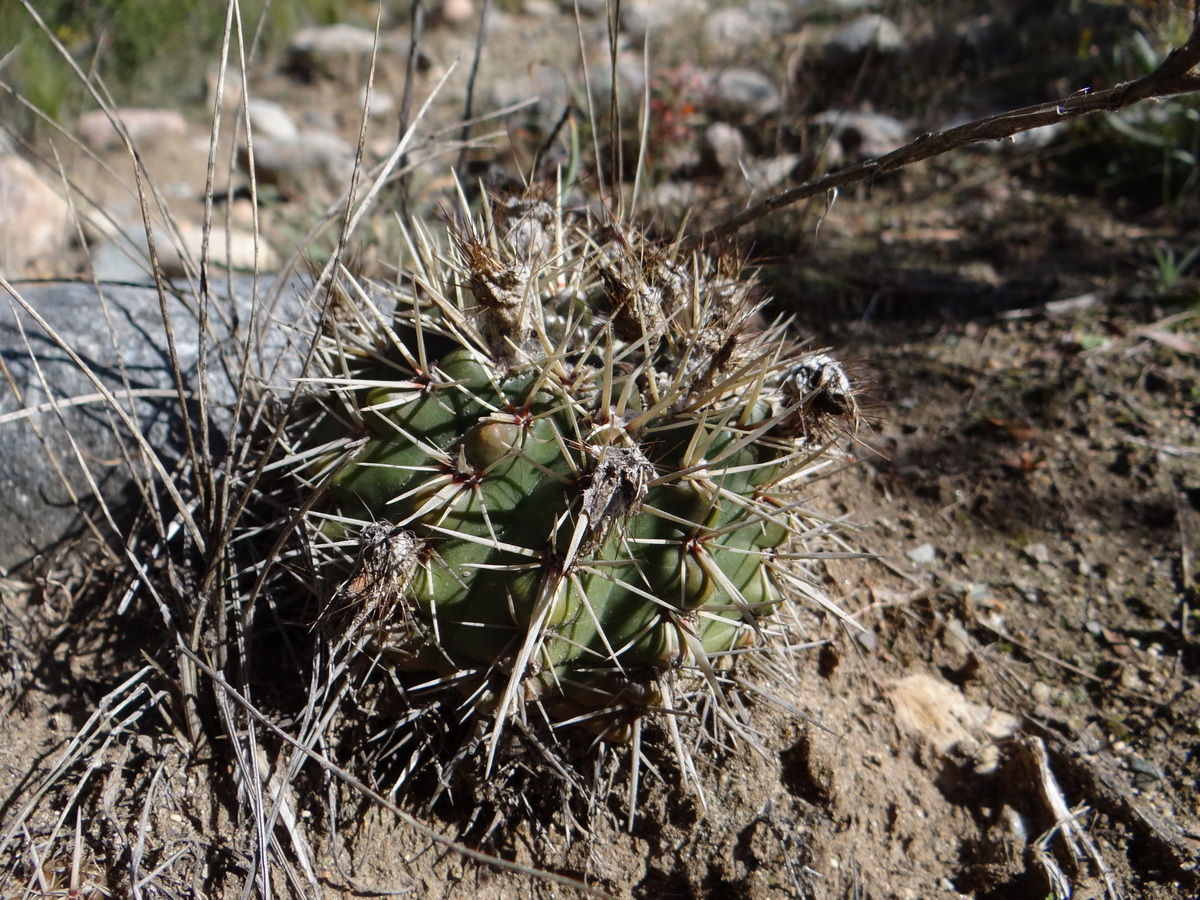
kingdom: Plantae
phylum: Tracheophyta
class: Magnoliopsida
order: Caryophyllales
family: Cactaceae
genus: Parodia
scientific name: Parodia mammulosa
